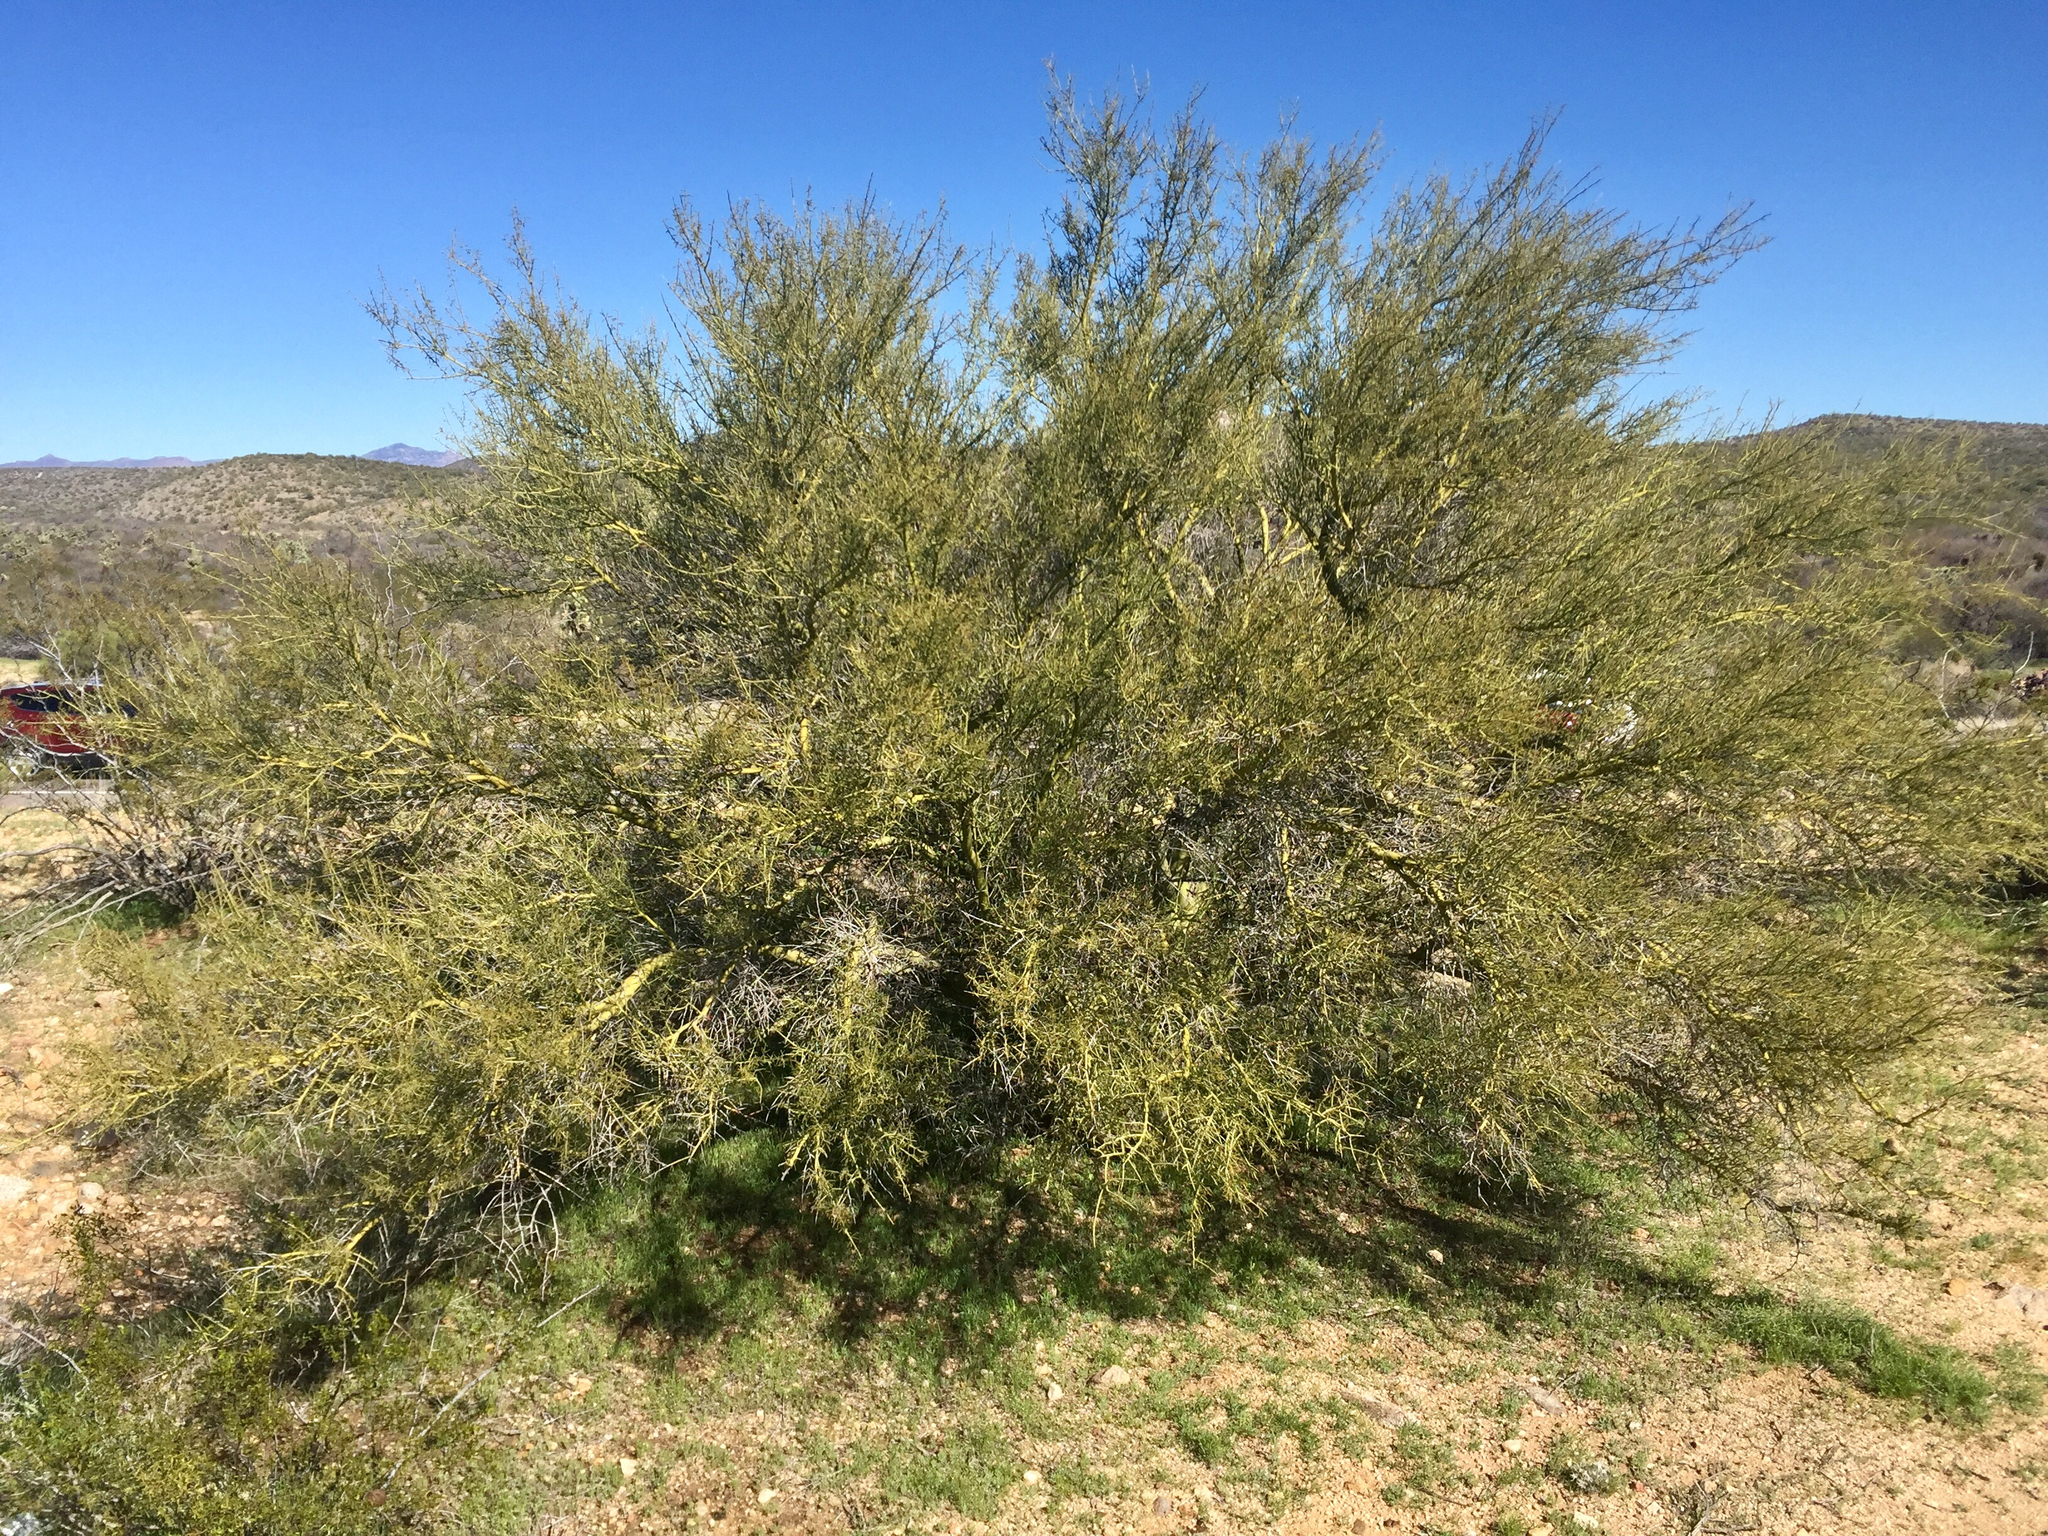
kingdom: Plantae
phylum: Tracheophyta
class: Magnoliopsida
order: Fabales
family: Fabaceae
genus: Parkinsonia
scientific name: Parkinsonia microphylla
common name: Yellow paloverde
